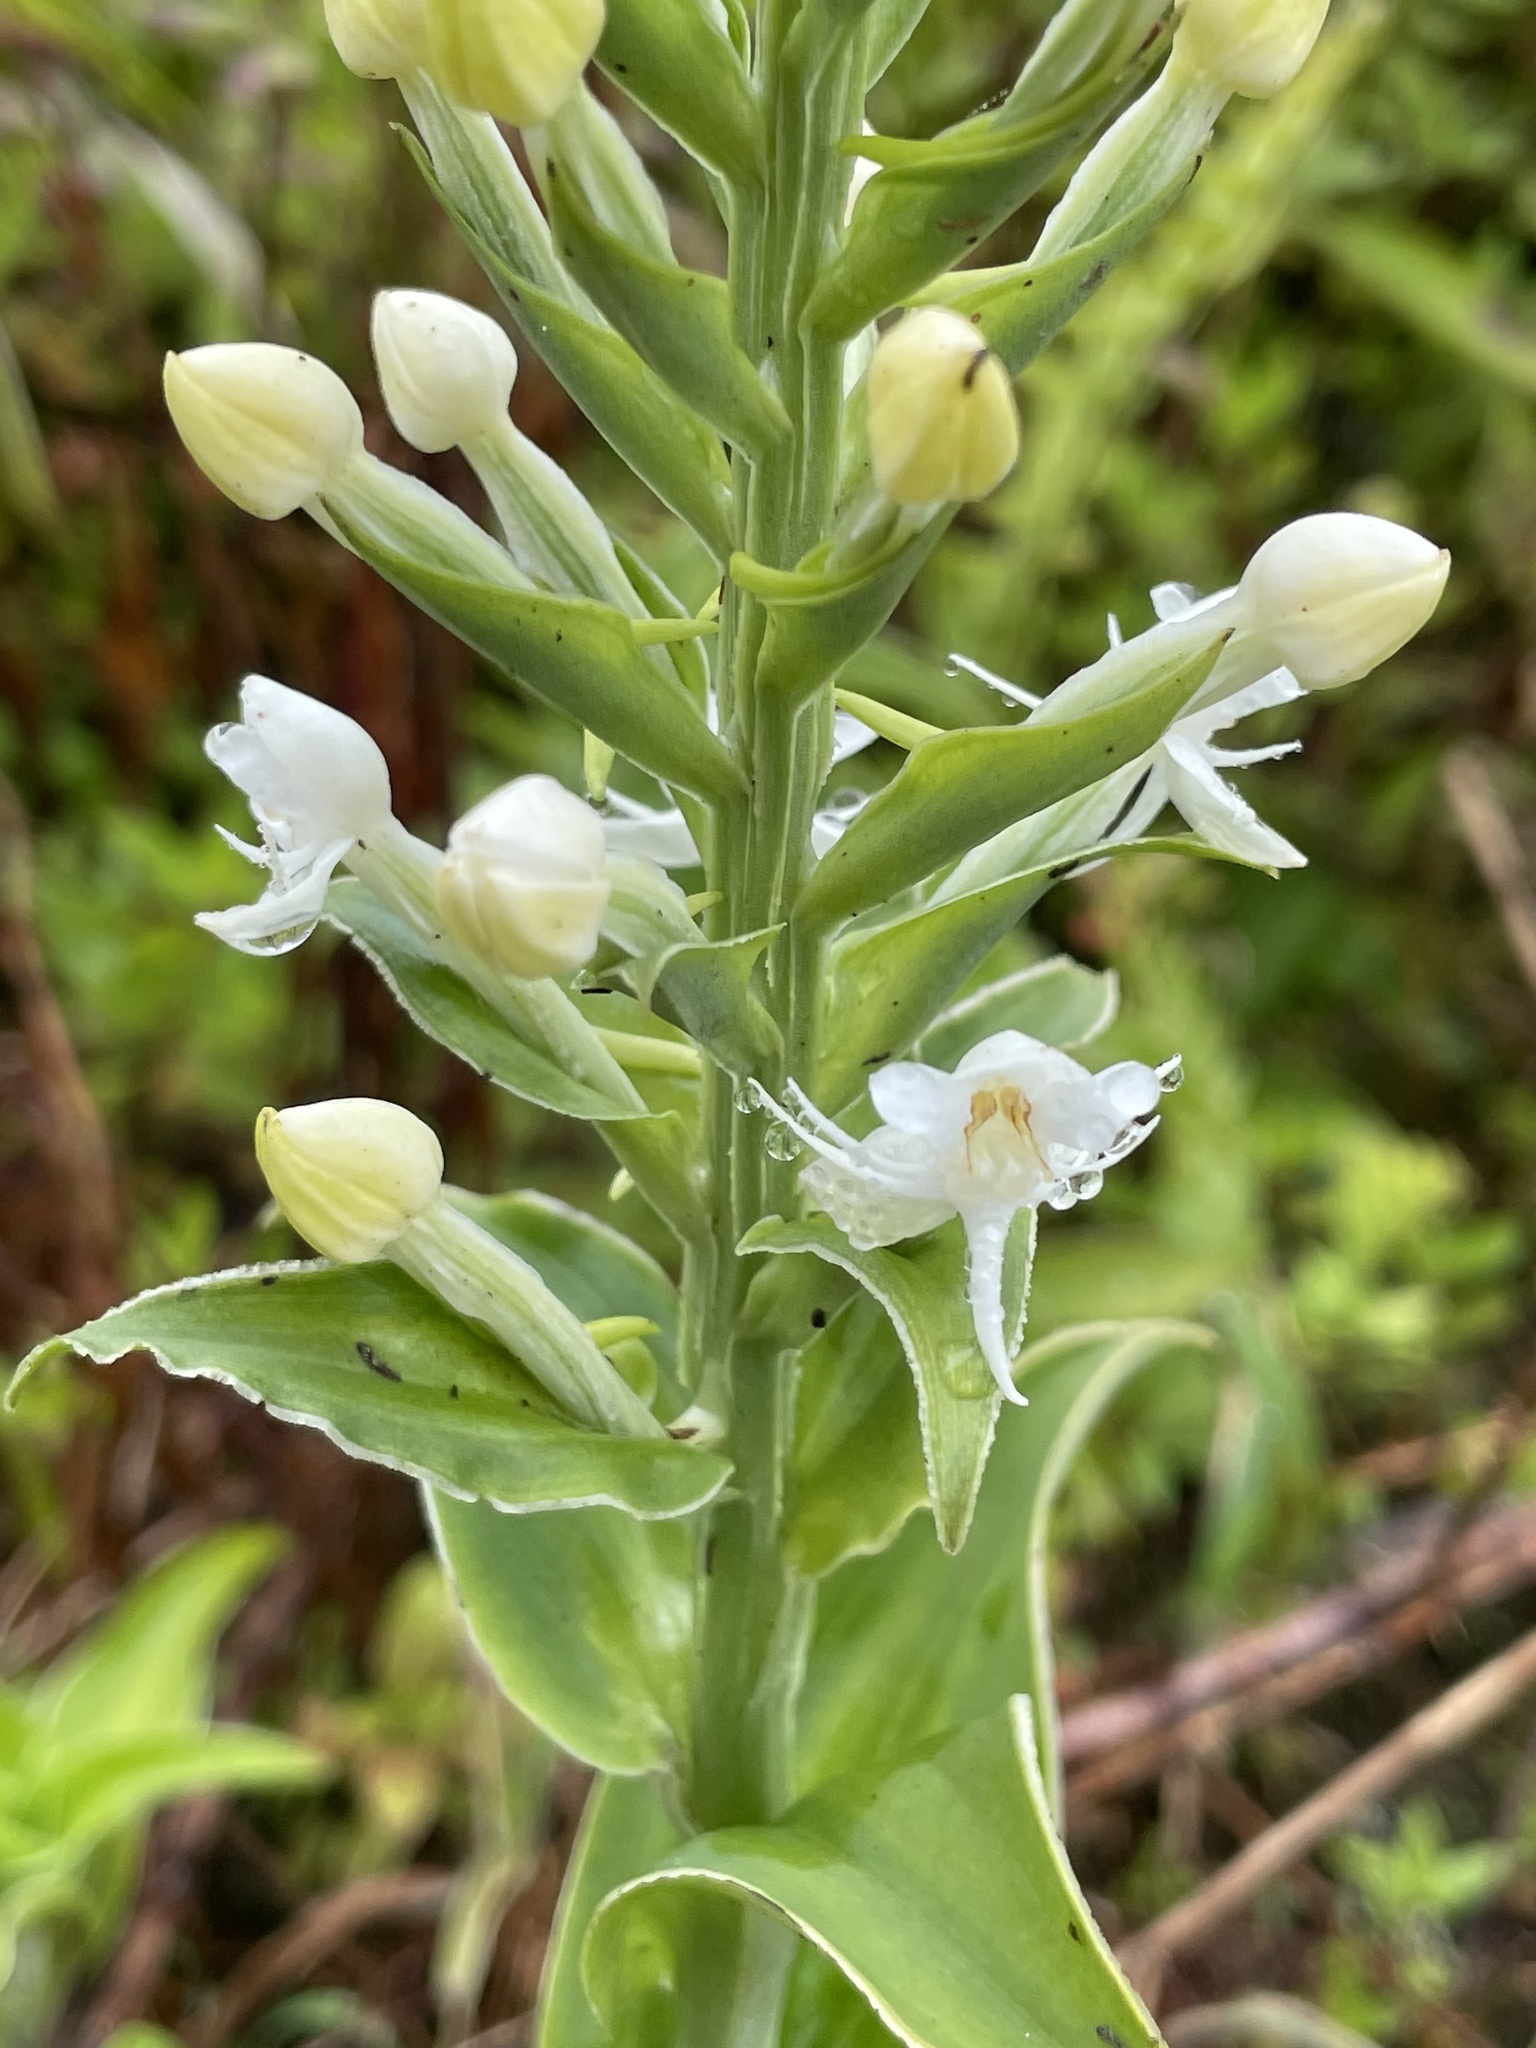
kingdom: Plantae
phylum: Tracheophyta
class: Liliopsida
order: Asparagales
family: Orchidaceae
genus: Habenaria
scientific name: Habenaria monorrhiza
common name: Tropical bog orchid
